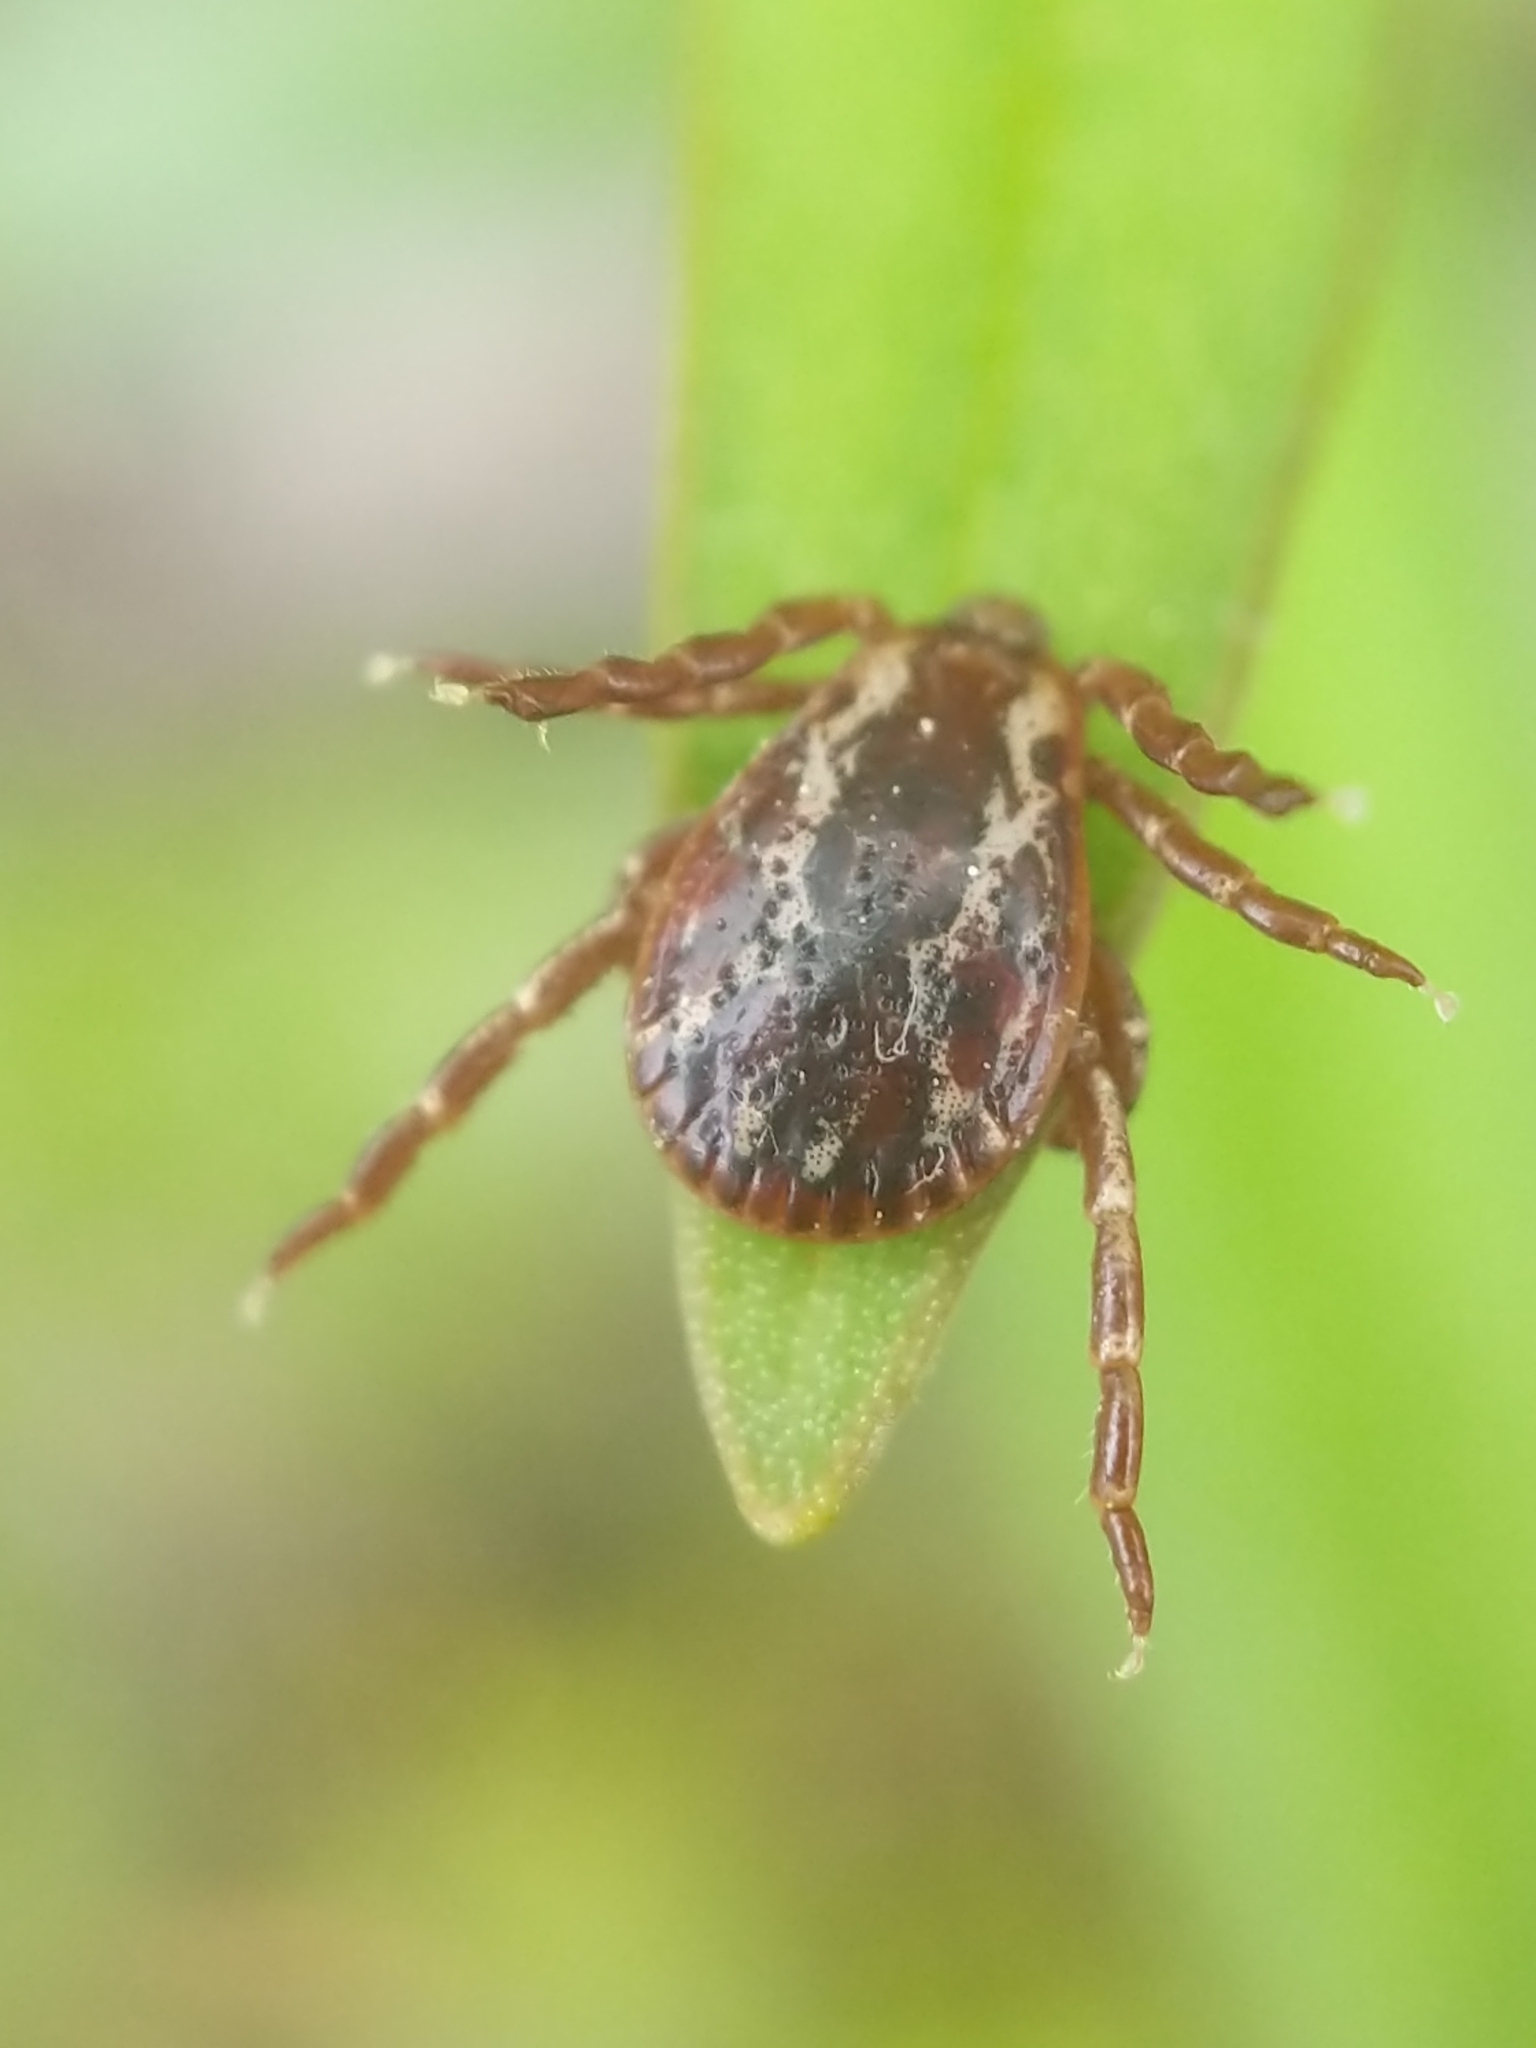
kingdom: Animalia
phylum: Arthropoda
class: Arachnida
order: Ixodida
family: Ixodidae
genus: Dermacentor
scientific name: Dermacentor variabilis
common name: American dog tick
